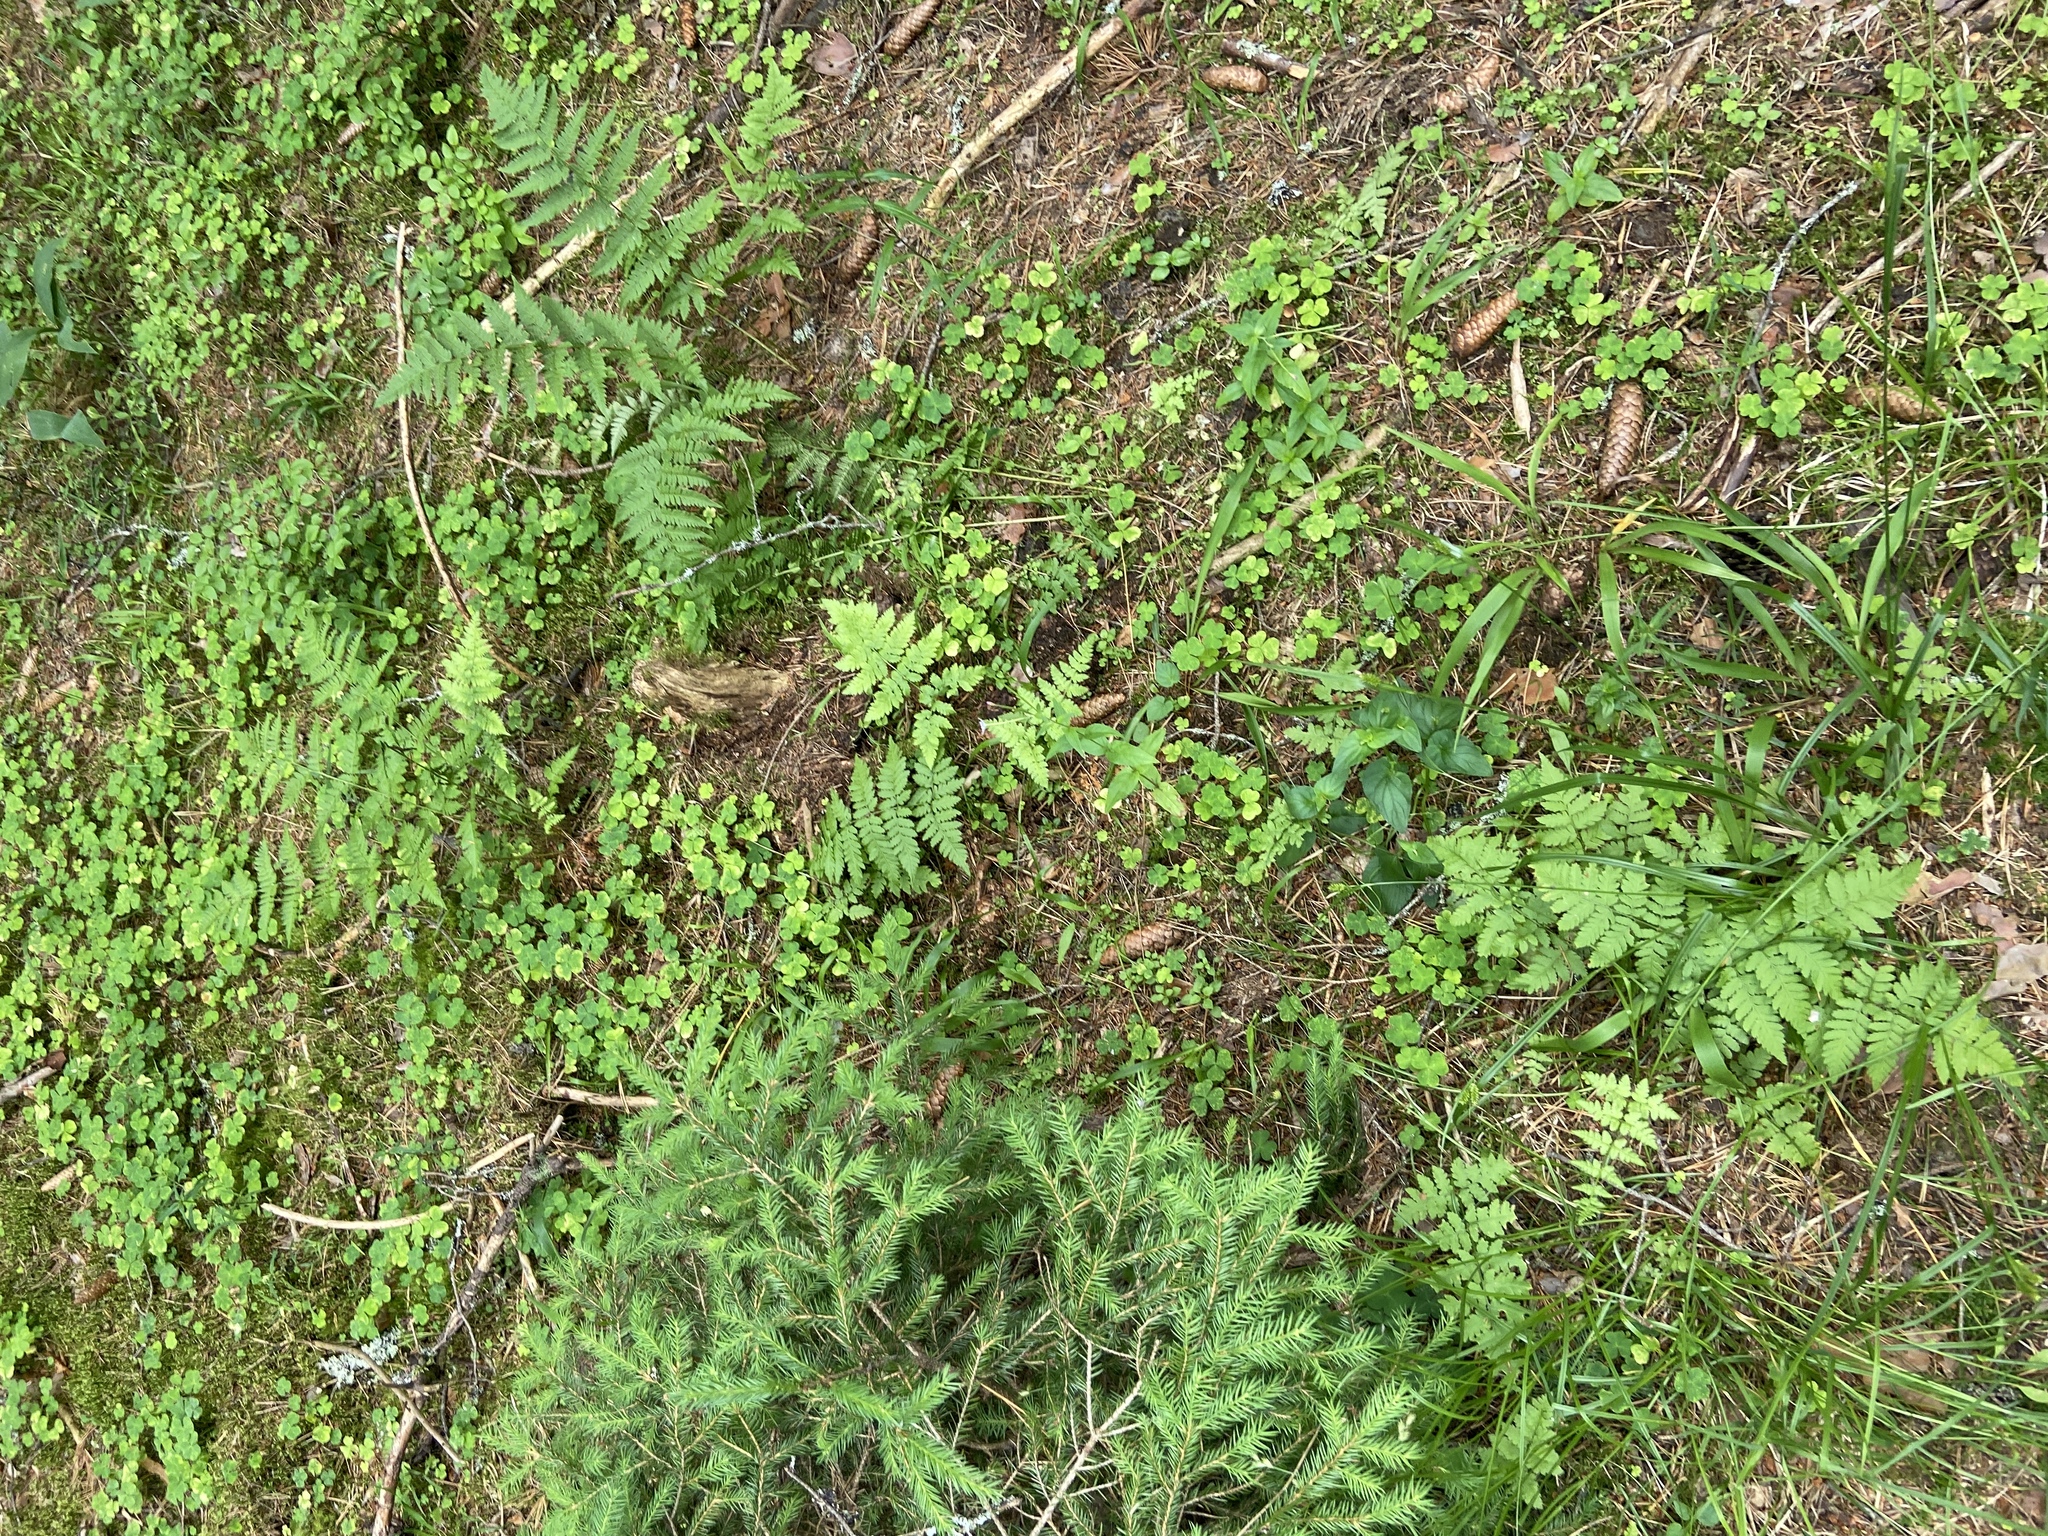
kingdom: Plantae
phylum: Tracheophyta
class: Polypodiopsida
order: Polypodiales
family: Dryopteridaceae
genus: Dryopteris
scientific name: Dryopteris carthusiana
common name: Narrow buckler-fern
